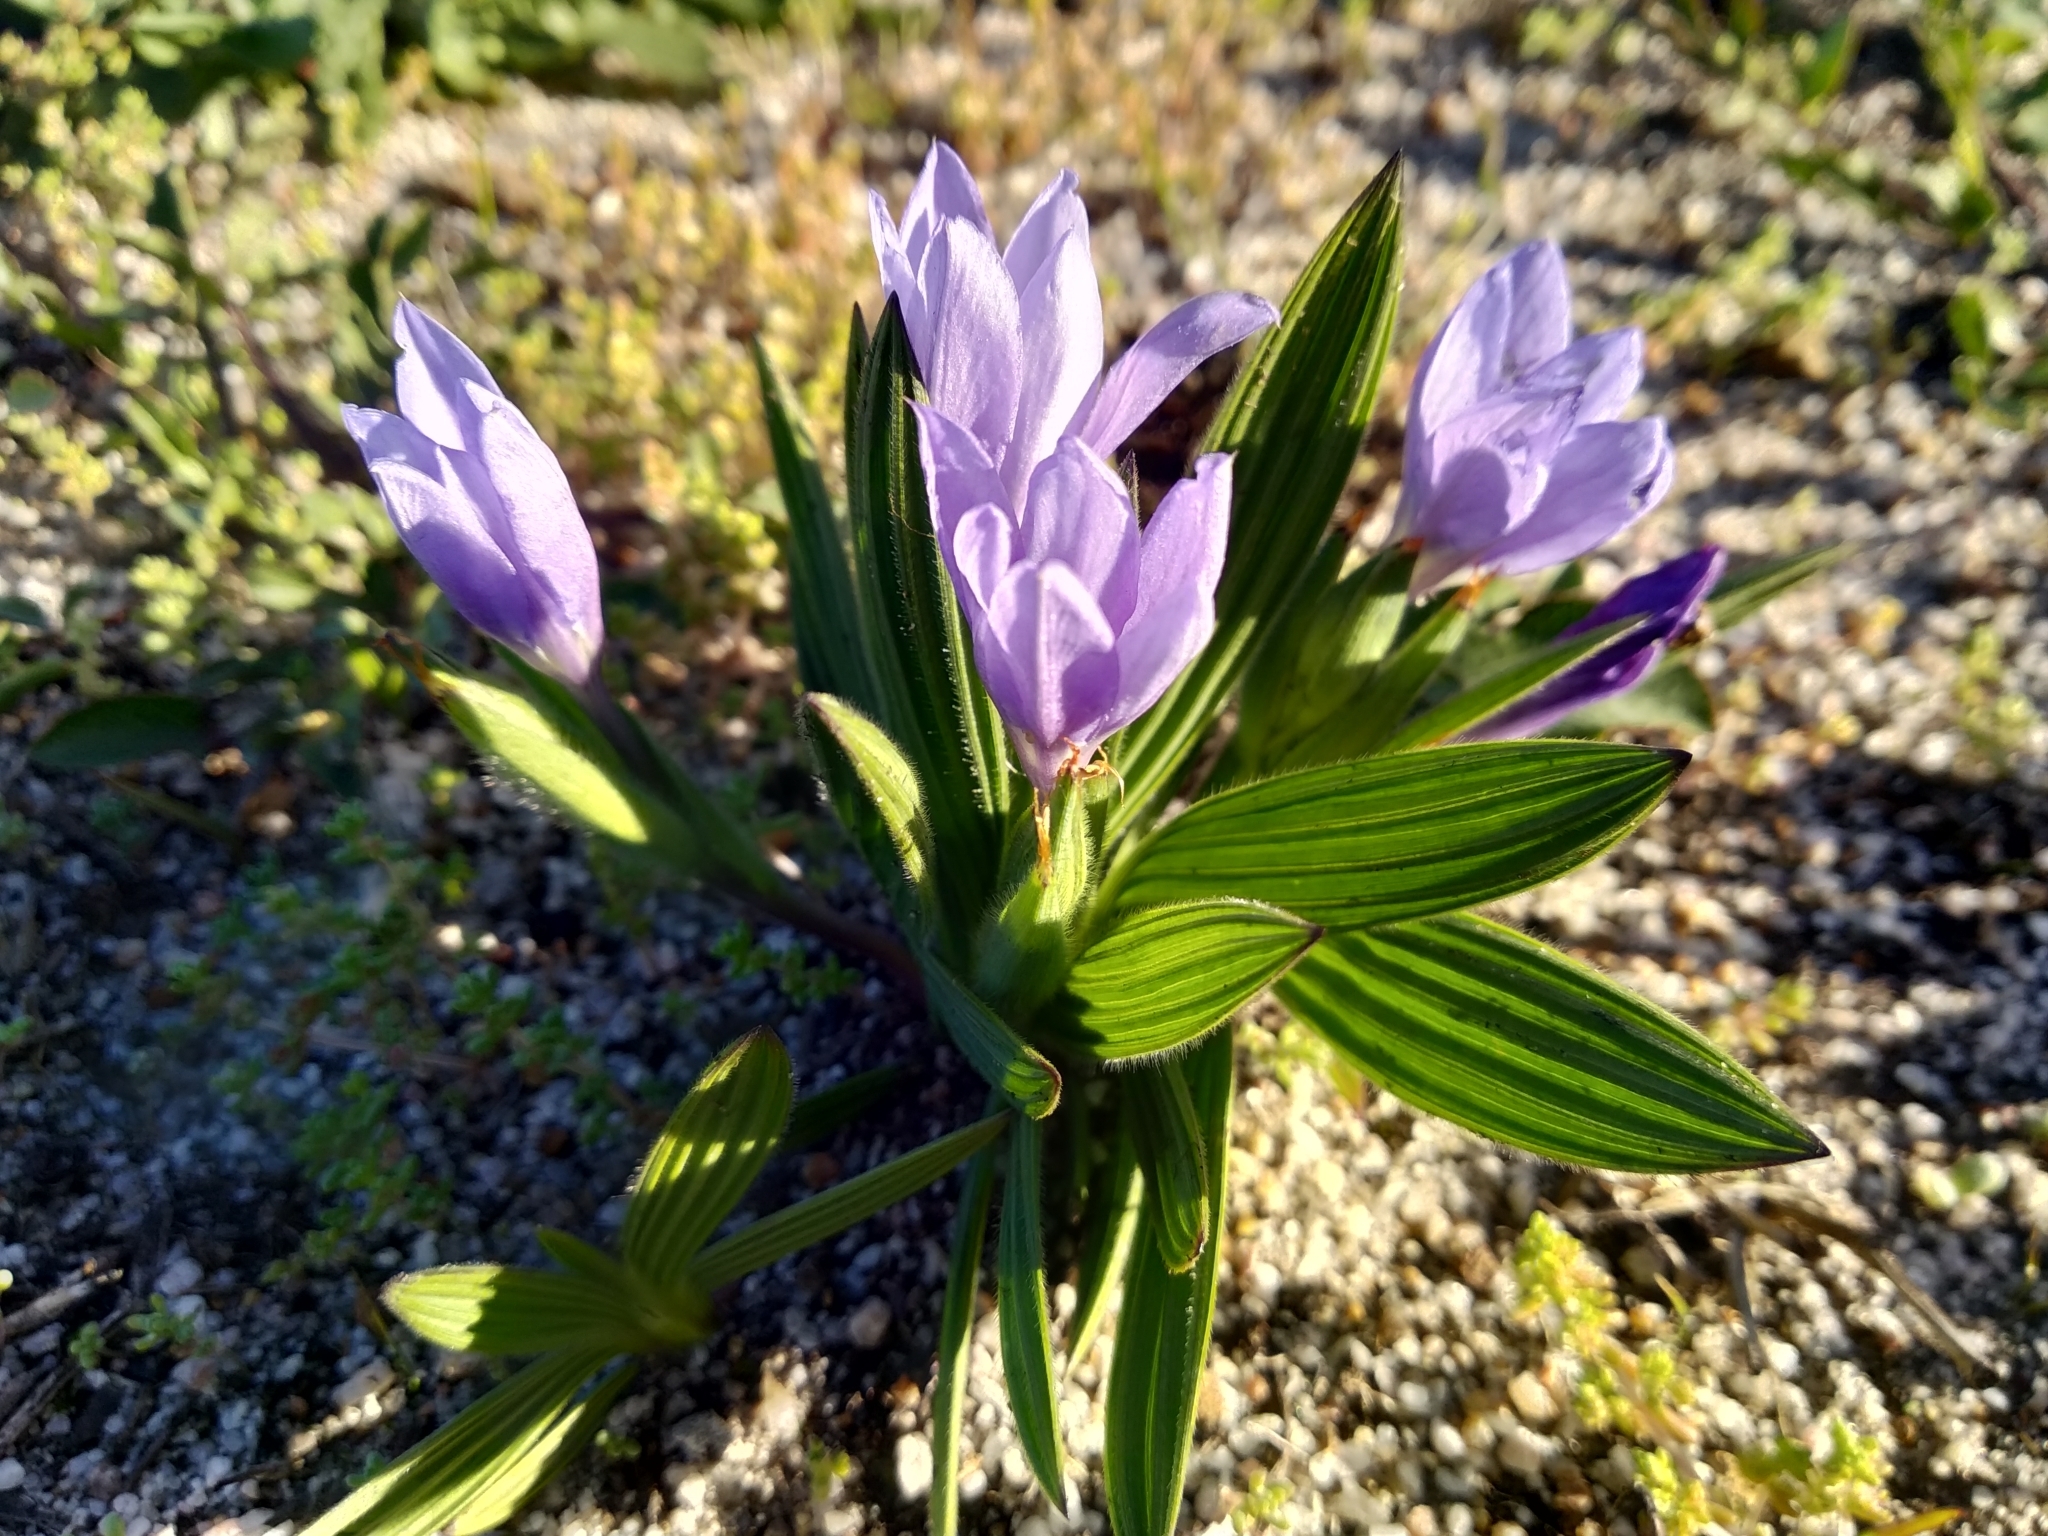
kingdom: Plantae
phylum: Tracheophyta
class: Liliopsida
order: Asparagales
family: Iridaceae
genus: Babiana
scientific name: Babiana villosula
